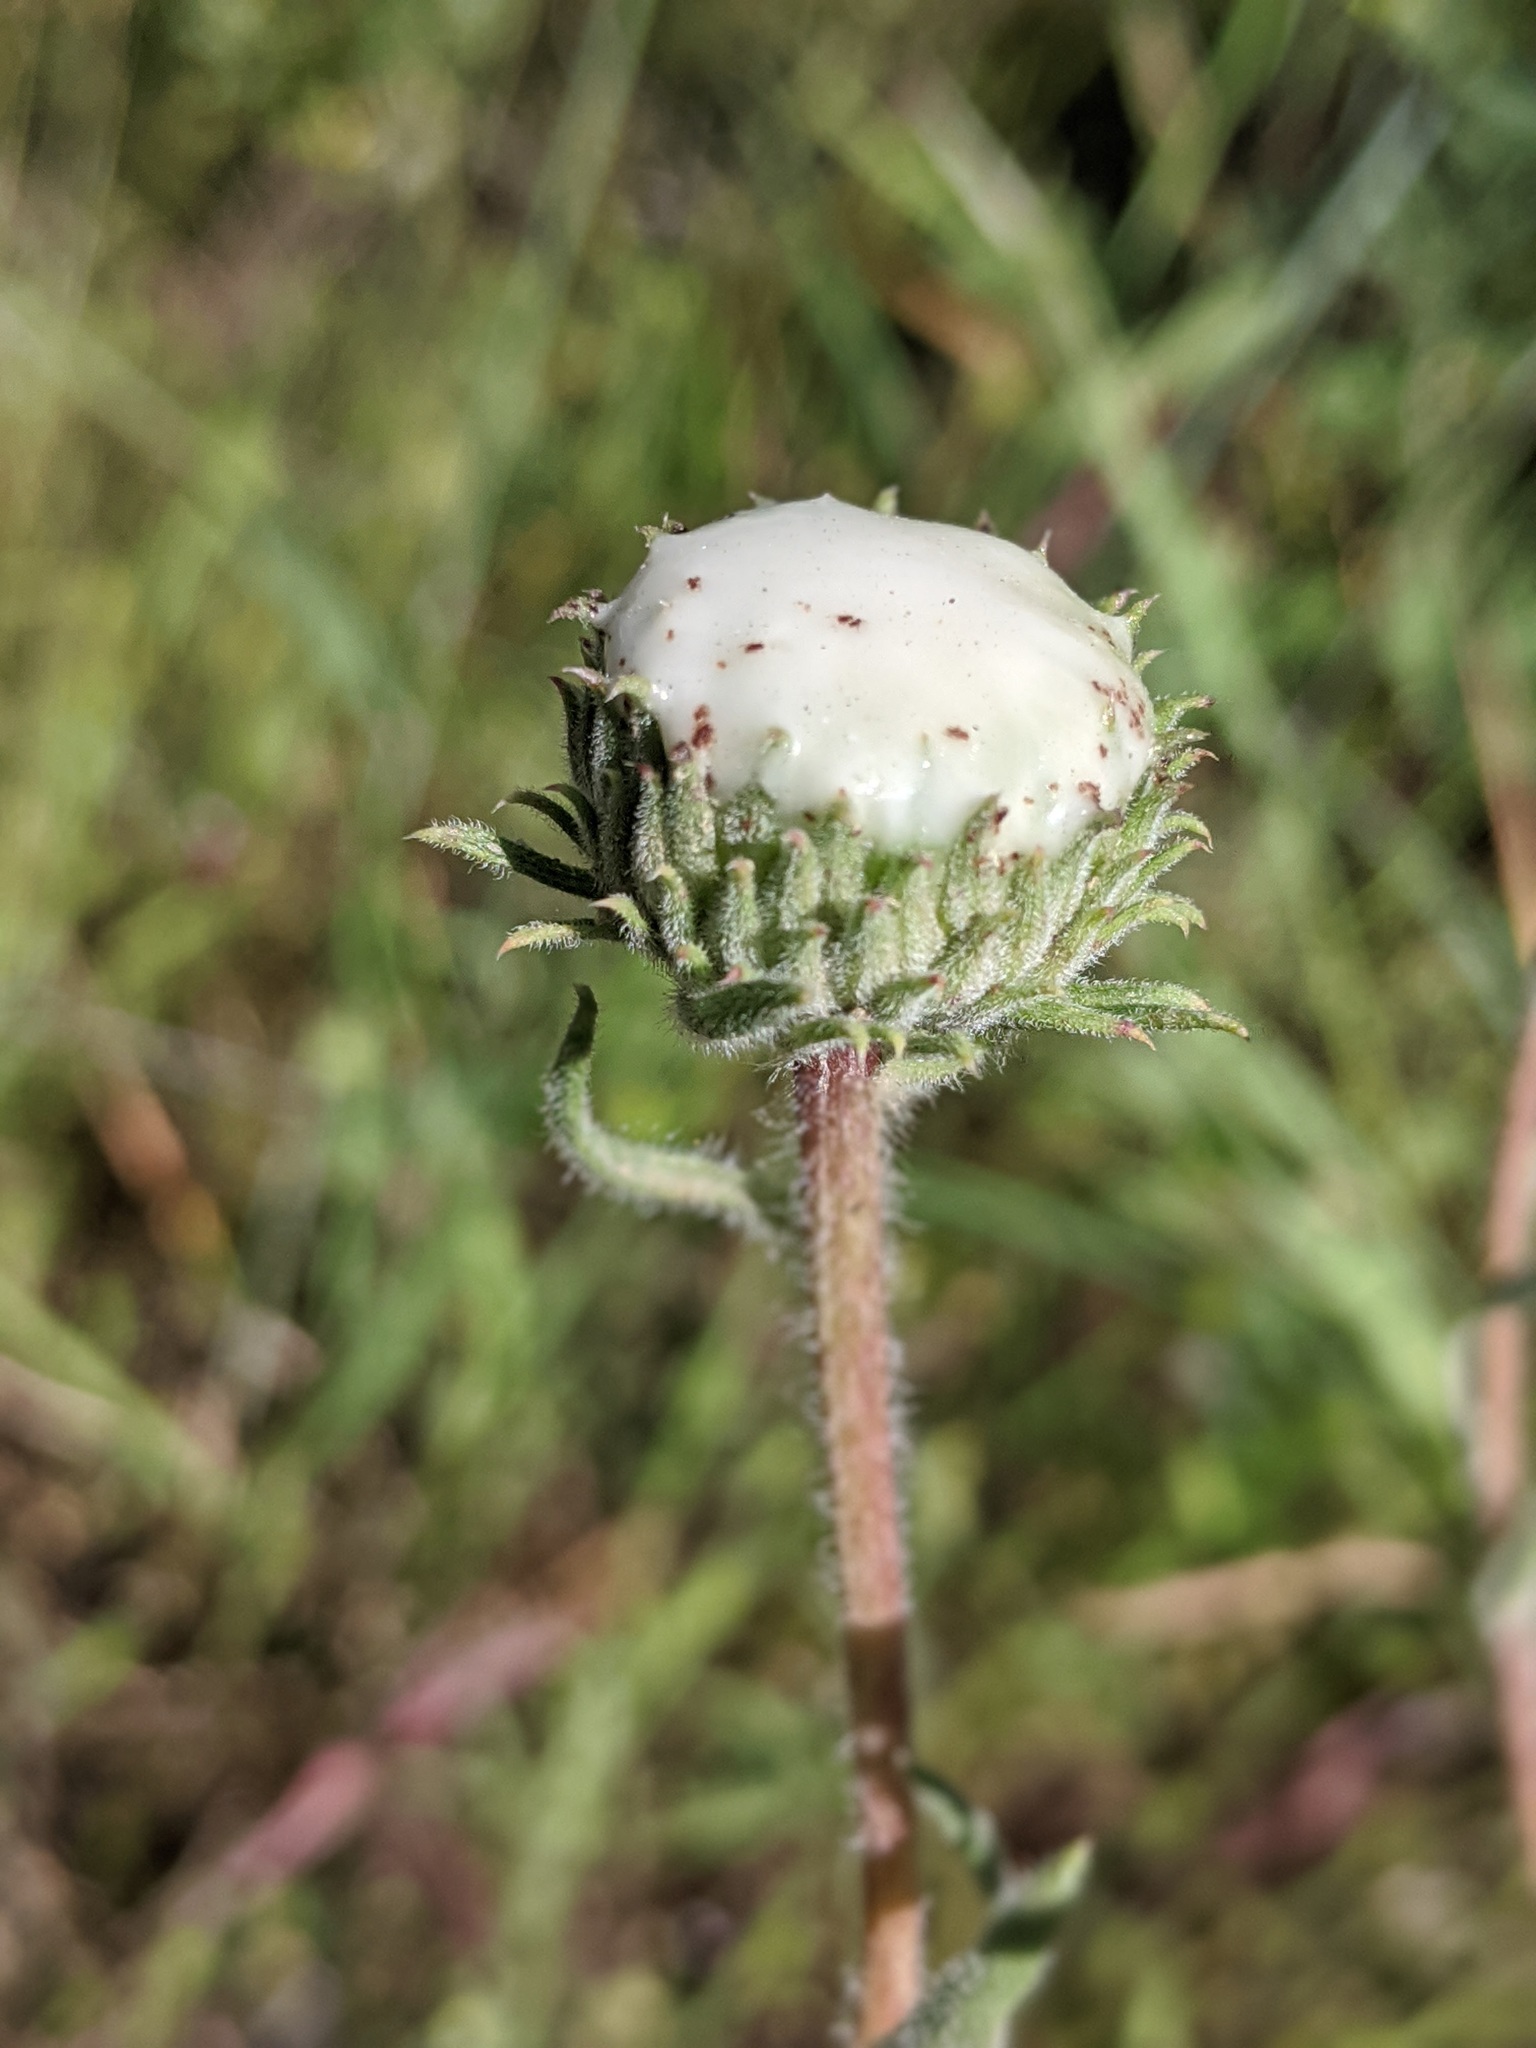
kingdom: Plantae
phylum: Tracheophyta
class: Magnoliopsida
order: Asterales
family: Asteraceae
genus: Grindelia
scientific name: Grindelia hirsutula
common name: Hairy gumweed
